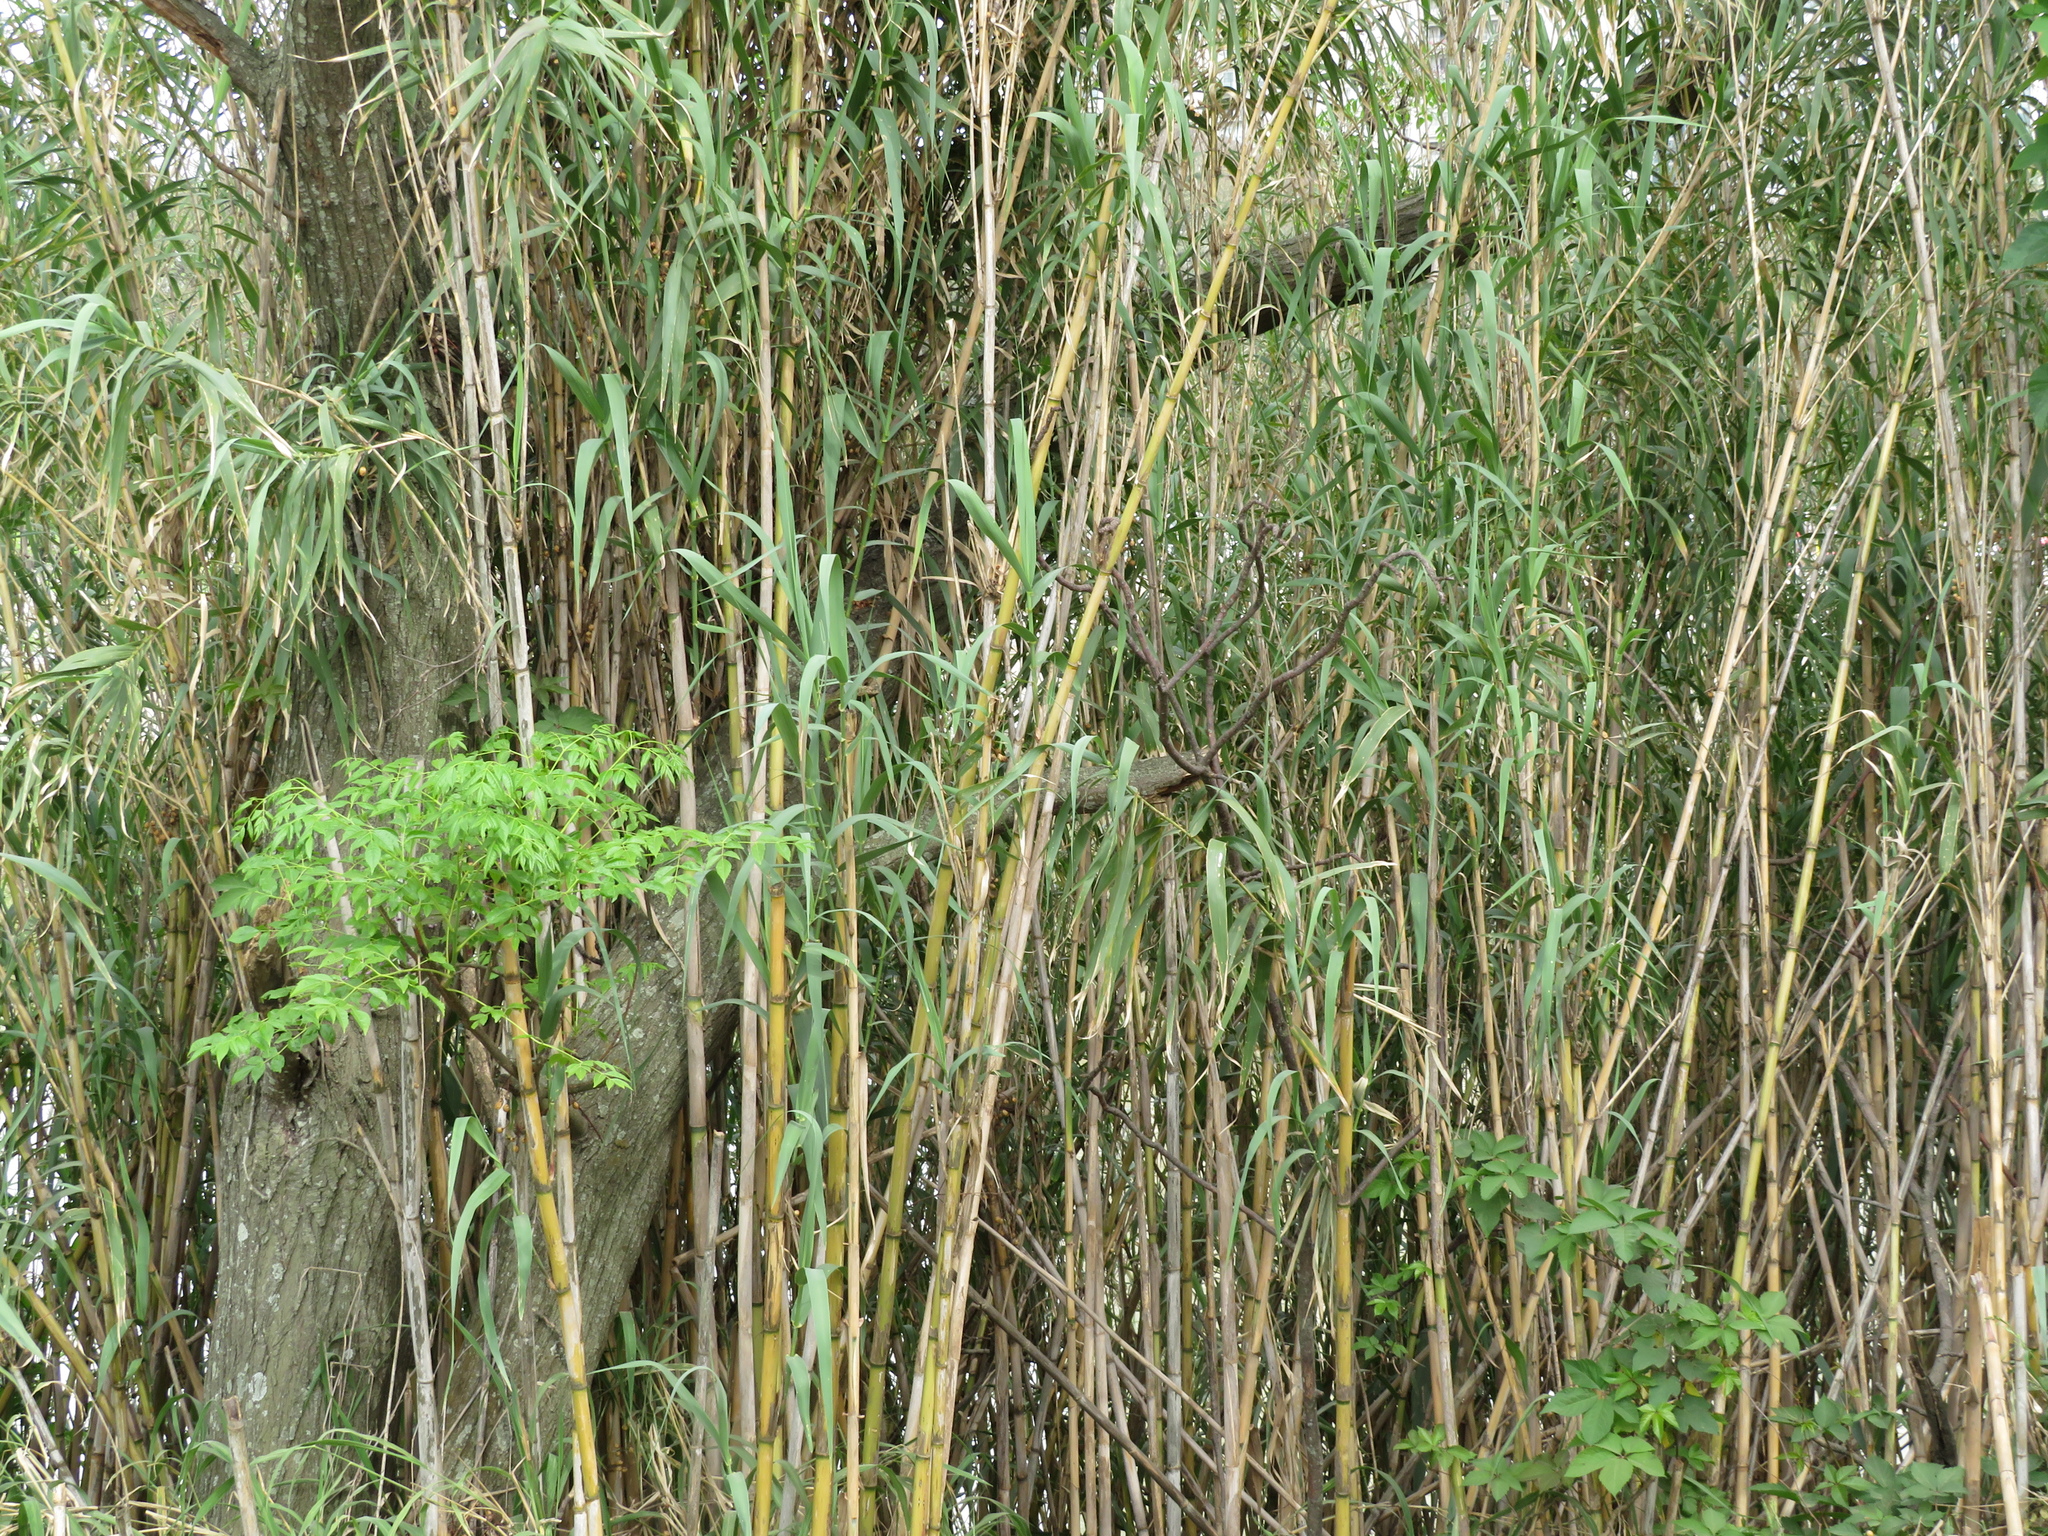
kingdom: Plantae
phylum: Tracheophyta
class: Liliopsida
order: Poales
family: Poaceae
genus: Arundo
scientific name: Arundo donax
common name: Giant reed
